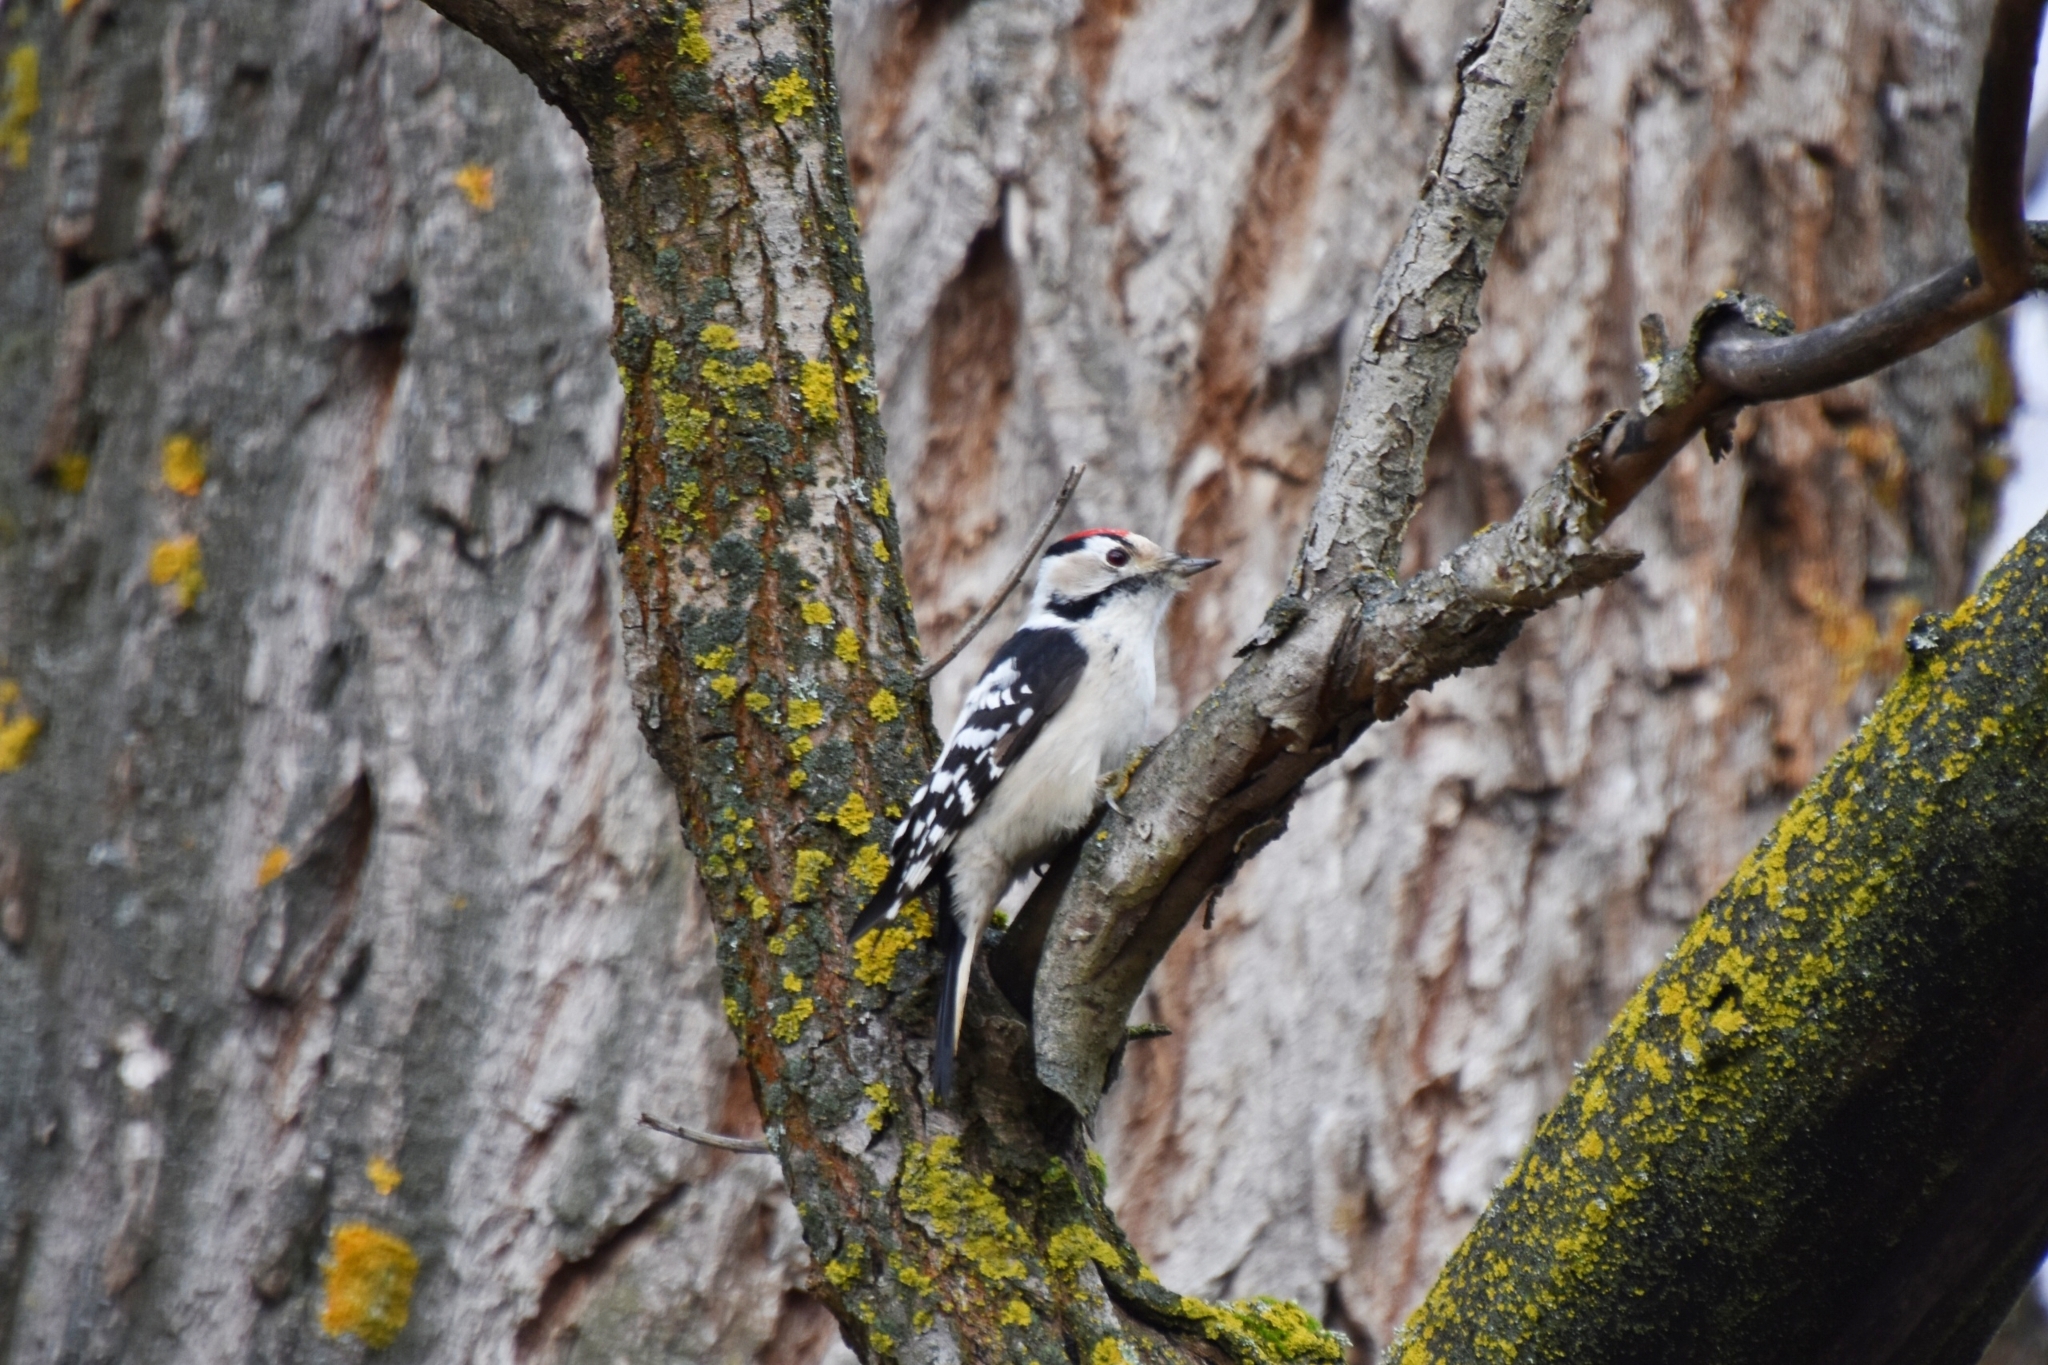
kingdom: Animalia
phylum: Chordata
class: Aves
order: Piciformes
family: Picidae
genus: Dryobates
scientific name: Dryobates minor
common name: Lesser spotted woodpecker
